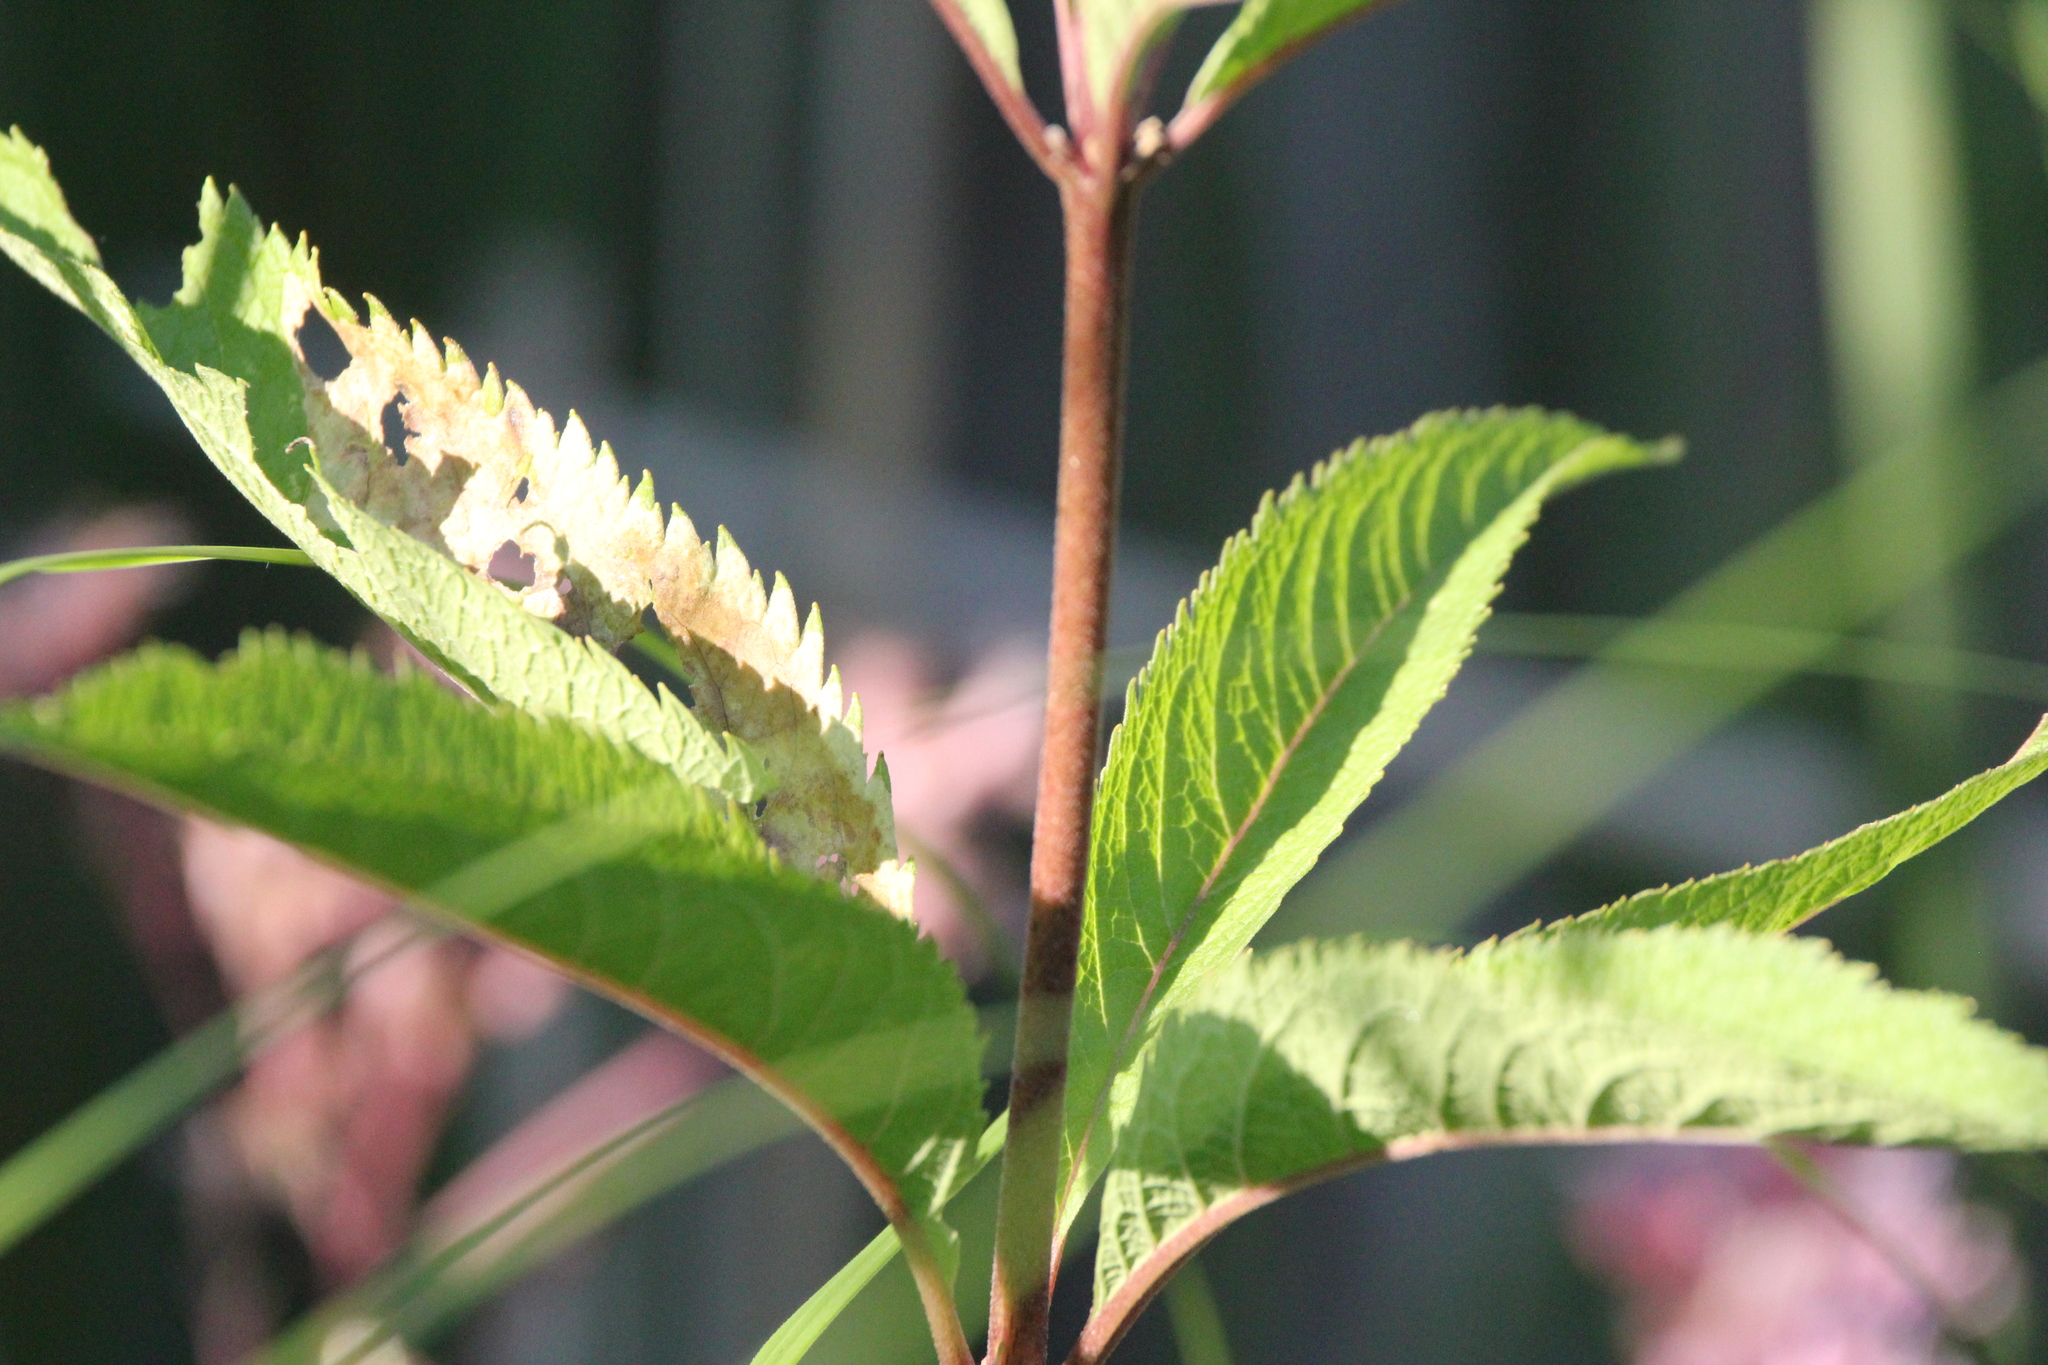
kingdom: Plantae
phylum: Tracheophyta
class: Magnoliopsida
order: Asterales
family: Asteraceae
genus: Eutrochium
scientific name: Eutrochium maculatum
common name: Spotted joe pye weed
